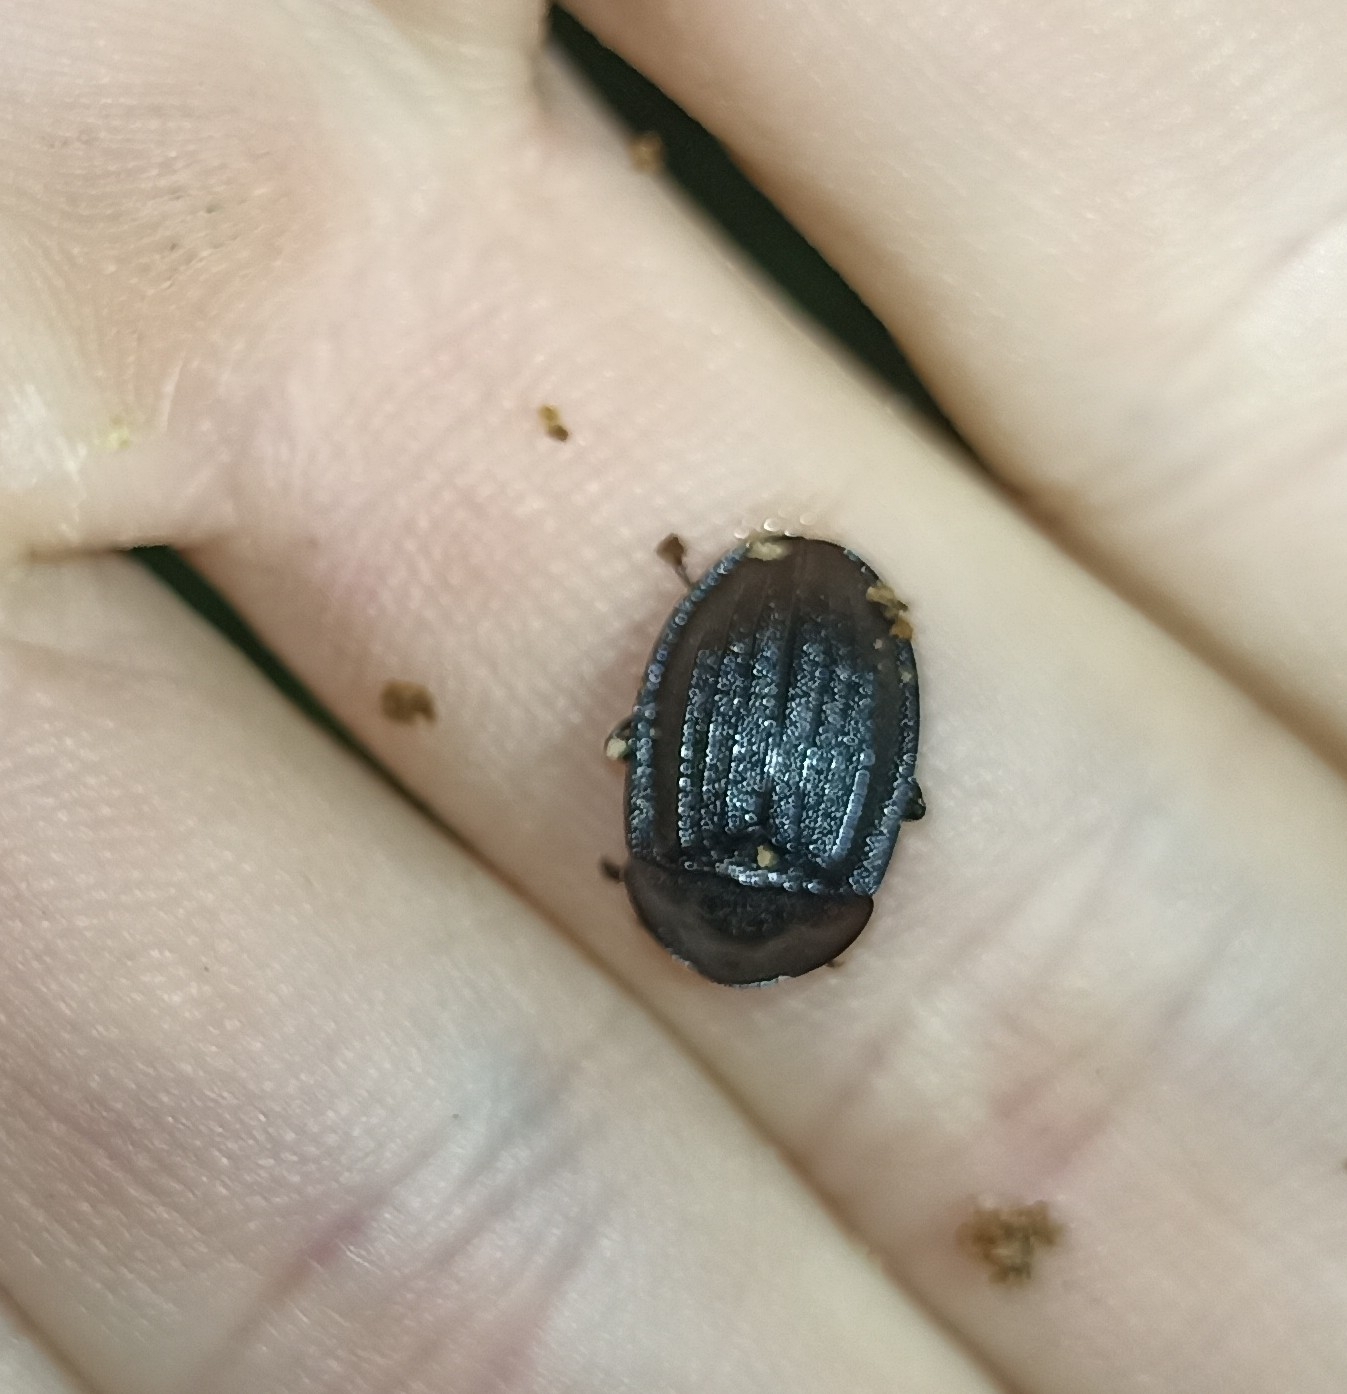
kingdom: Animalia
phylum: Arthropoda
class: Insecta
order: Coleoptera
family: Staphylinidae
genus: Silpha
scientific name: Silpha atrata
